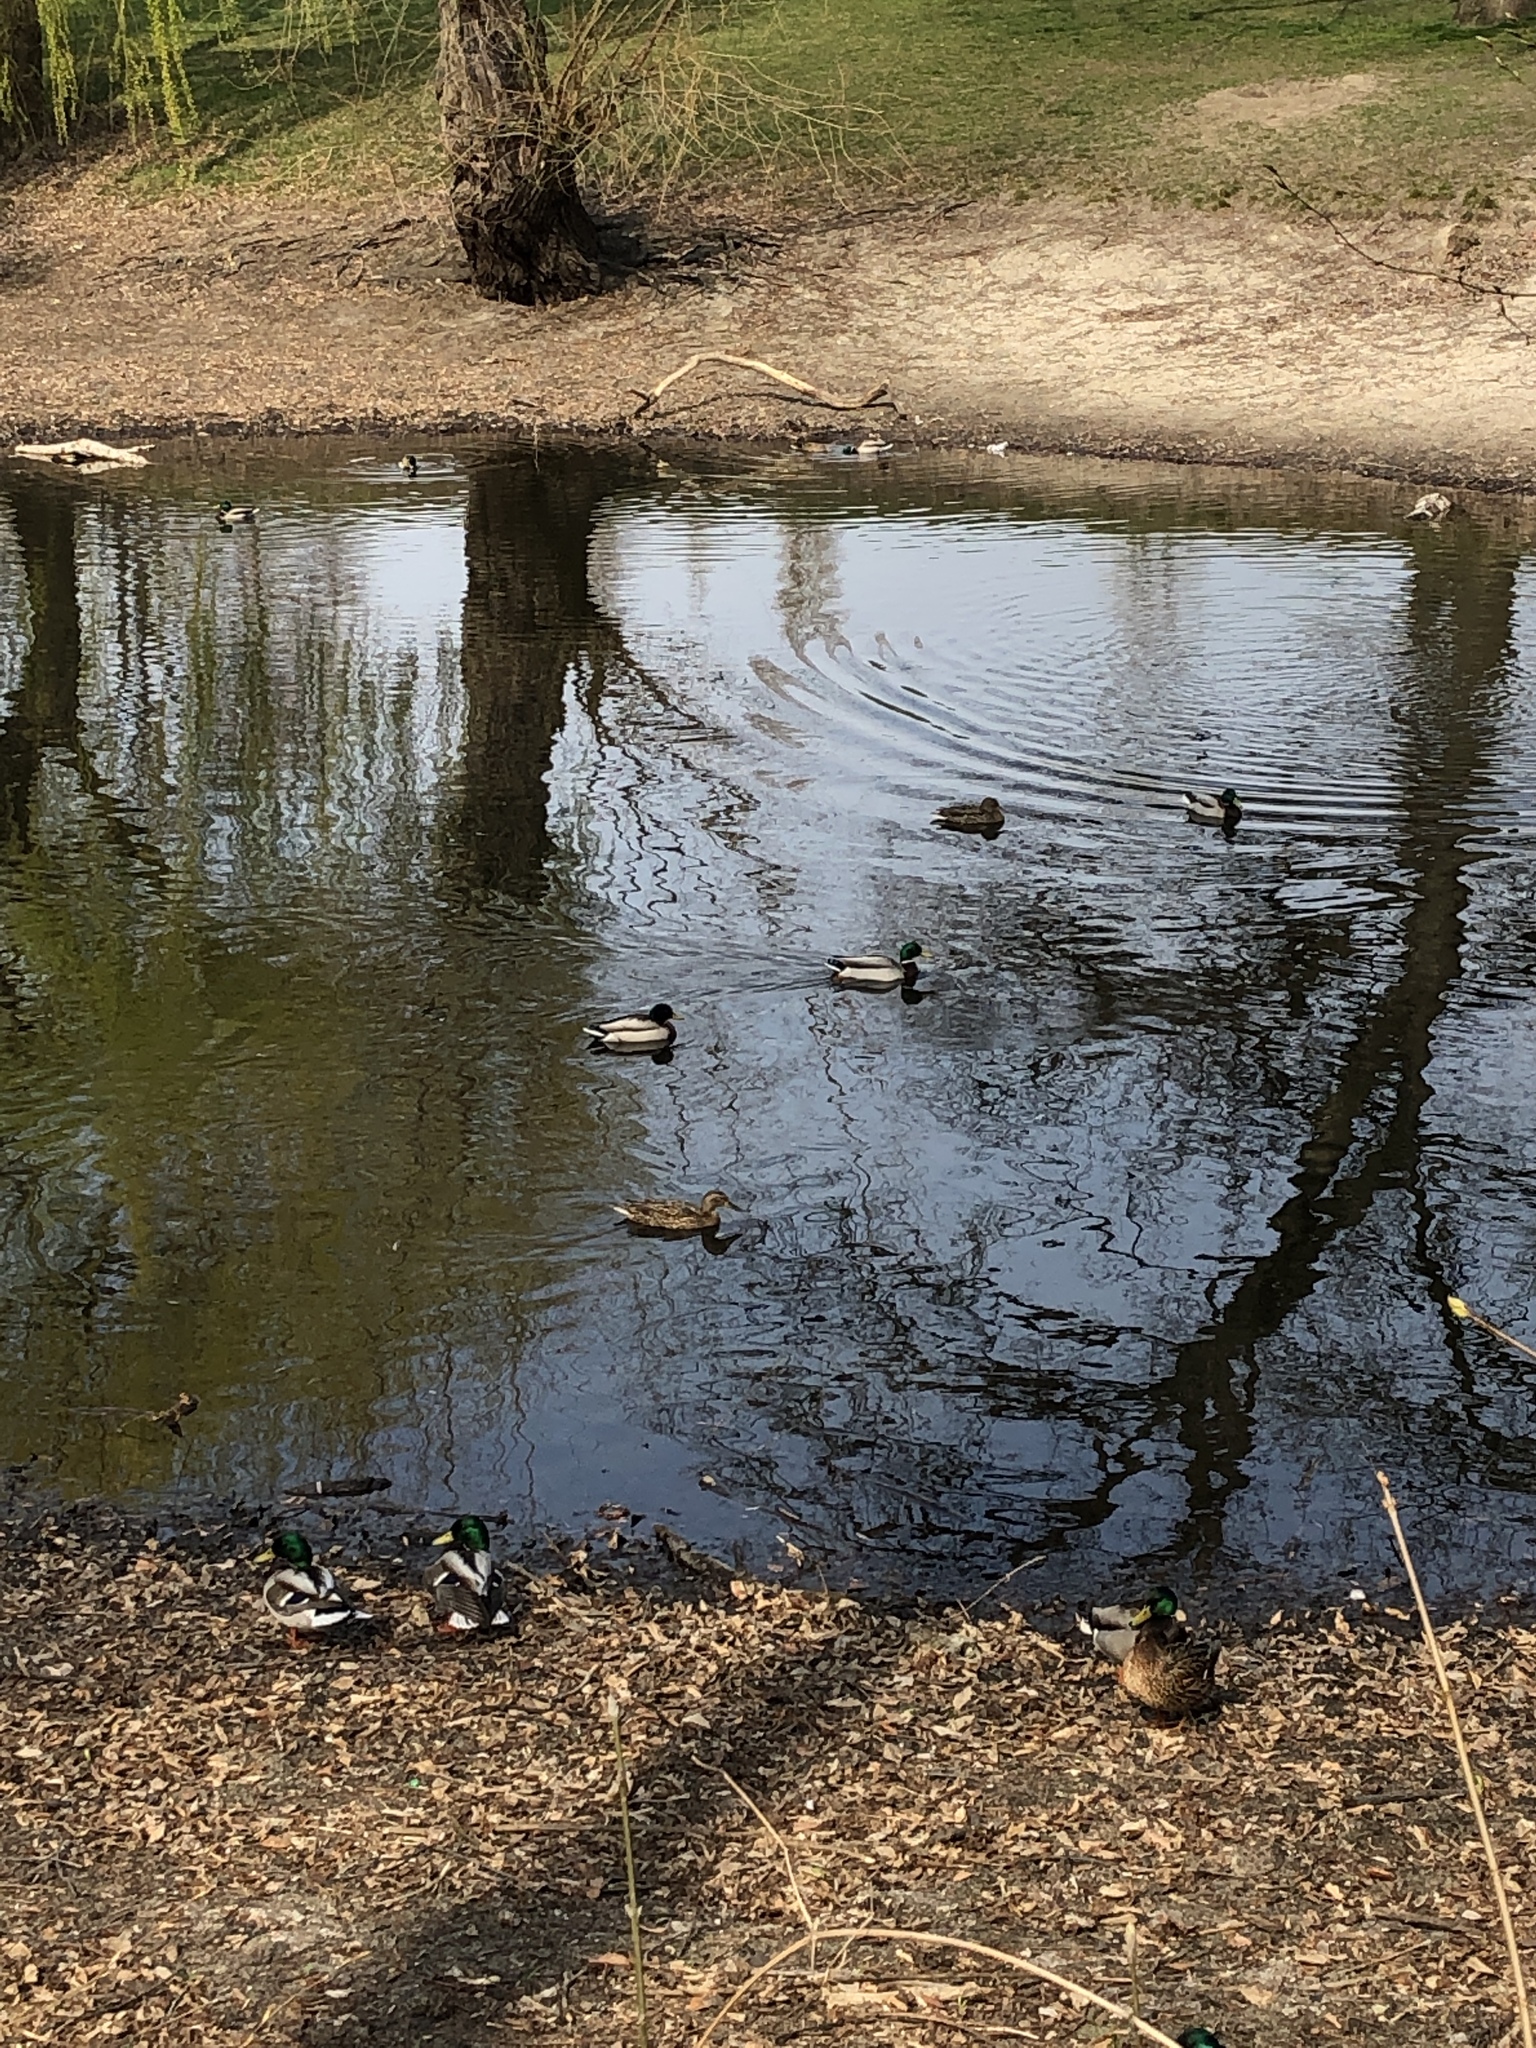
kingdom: Animalia
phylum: Chordata
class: Aves
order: Anseriformes
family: Anatidae
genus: Anas
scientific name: Anas platyrhynchos
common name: Mallard
